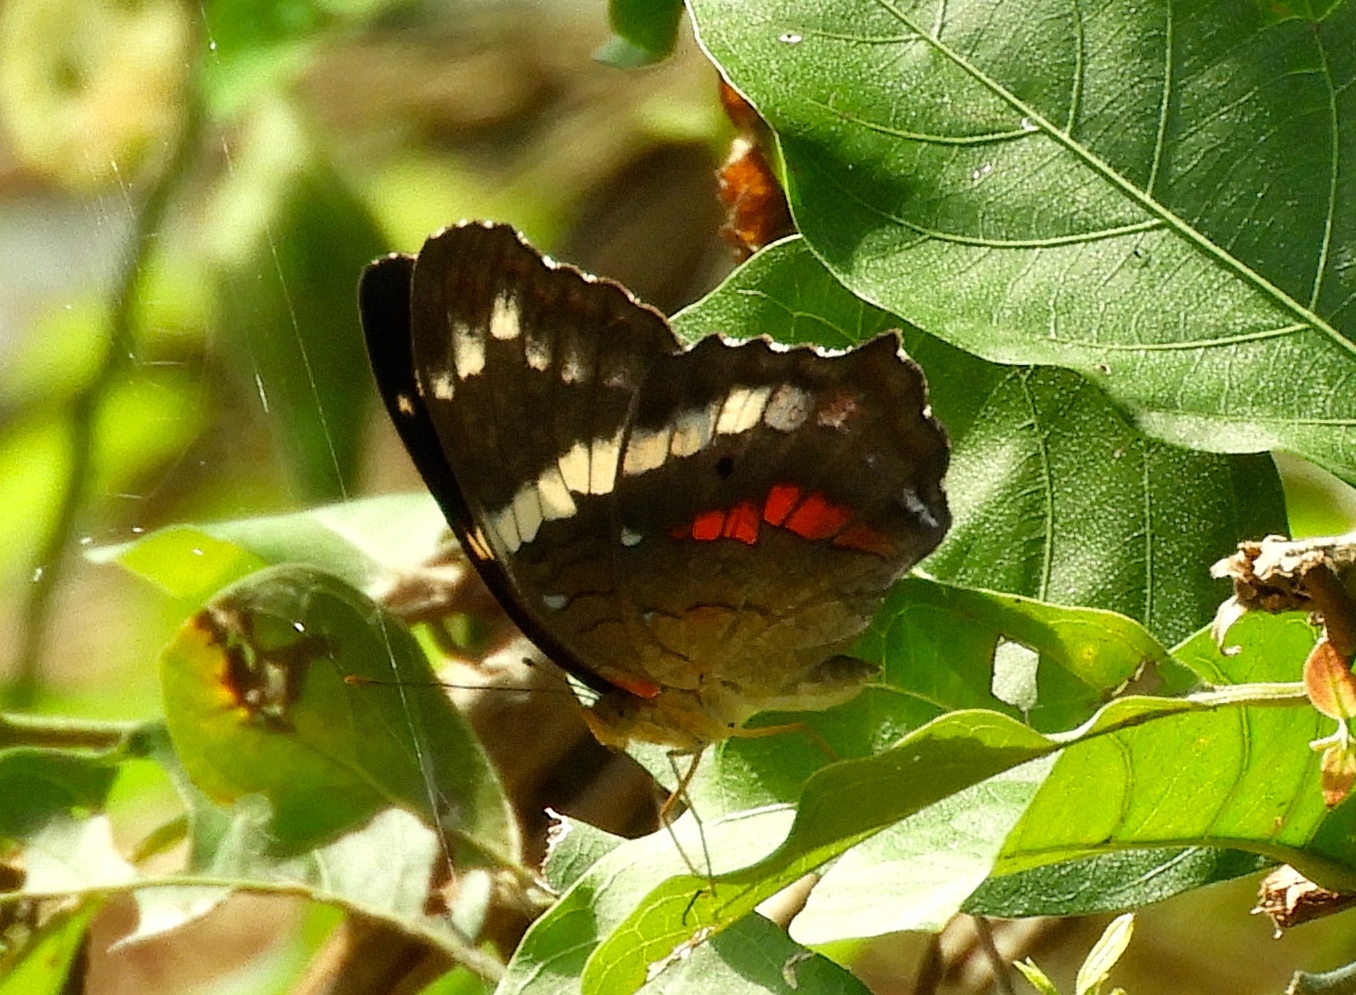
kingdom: Animalia
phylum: Arthropoda
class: Insecta
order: Lepidoptera
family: Nymphalidae
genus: Anartia
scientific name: Anartia fatima
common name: Banded peacock
